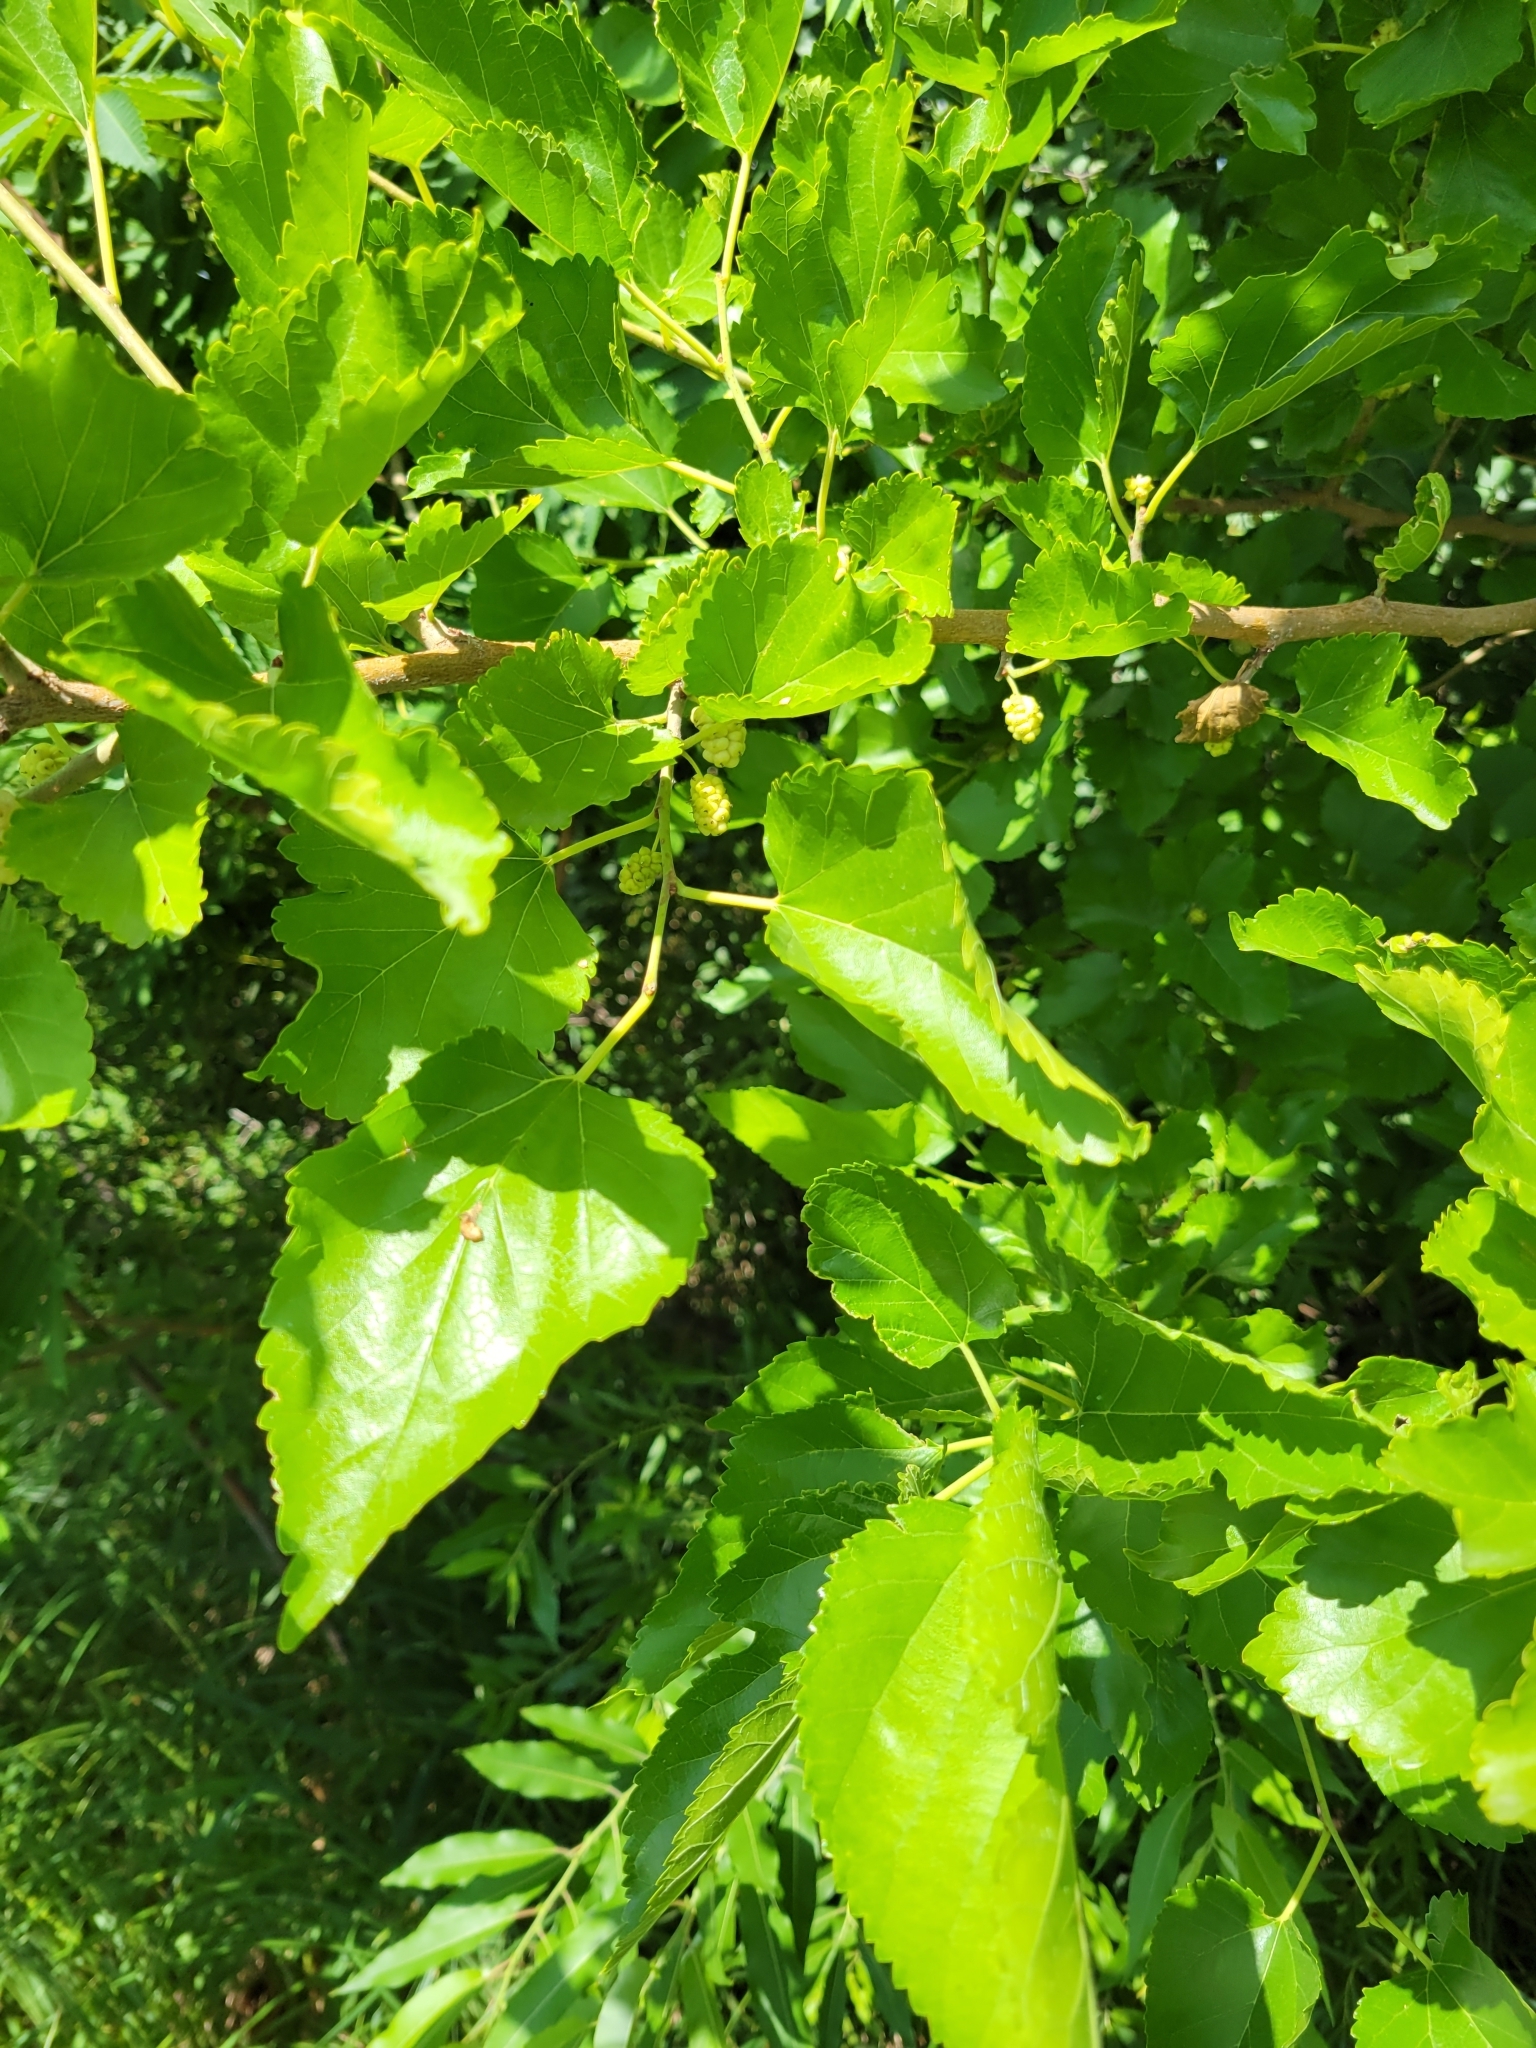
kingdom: Plantae
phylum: Tracheophyta
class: Magnoliopsida
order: Rosales
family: Moraceae
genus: Morus
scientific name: Morus alba
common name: White mulberry
